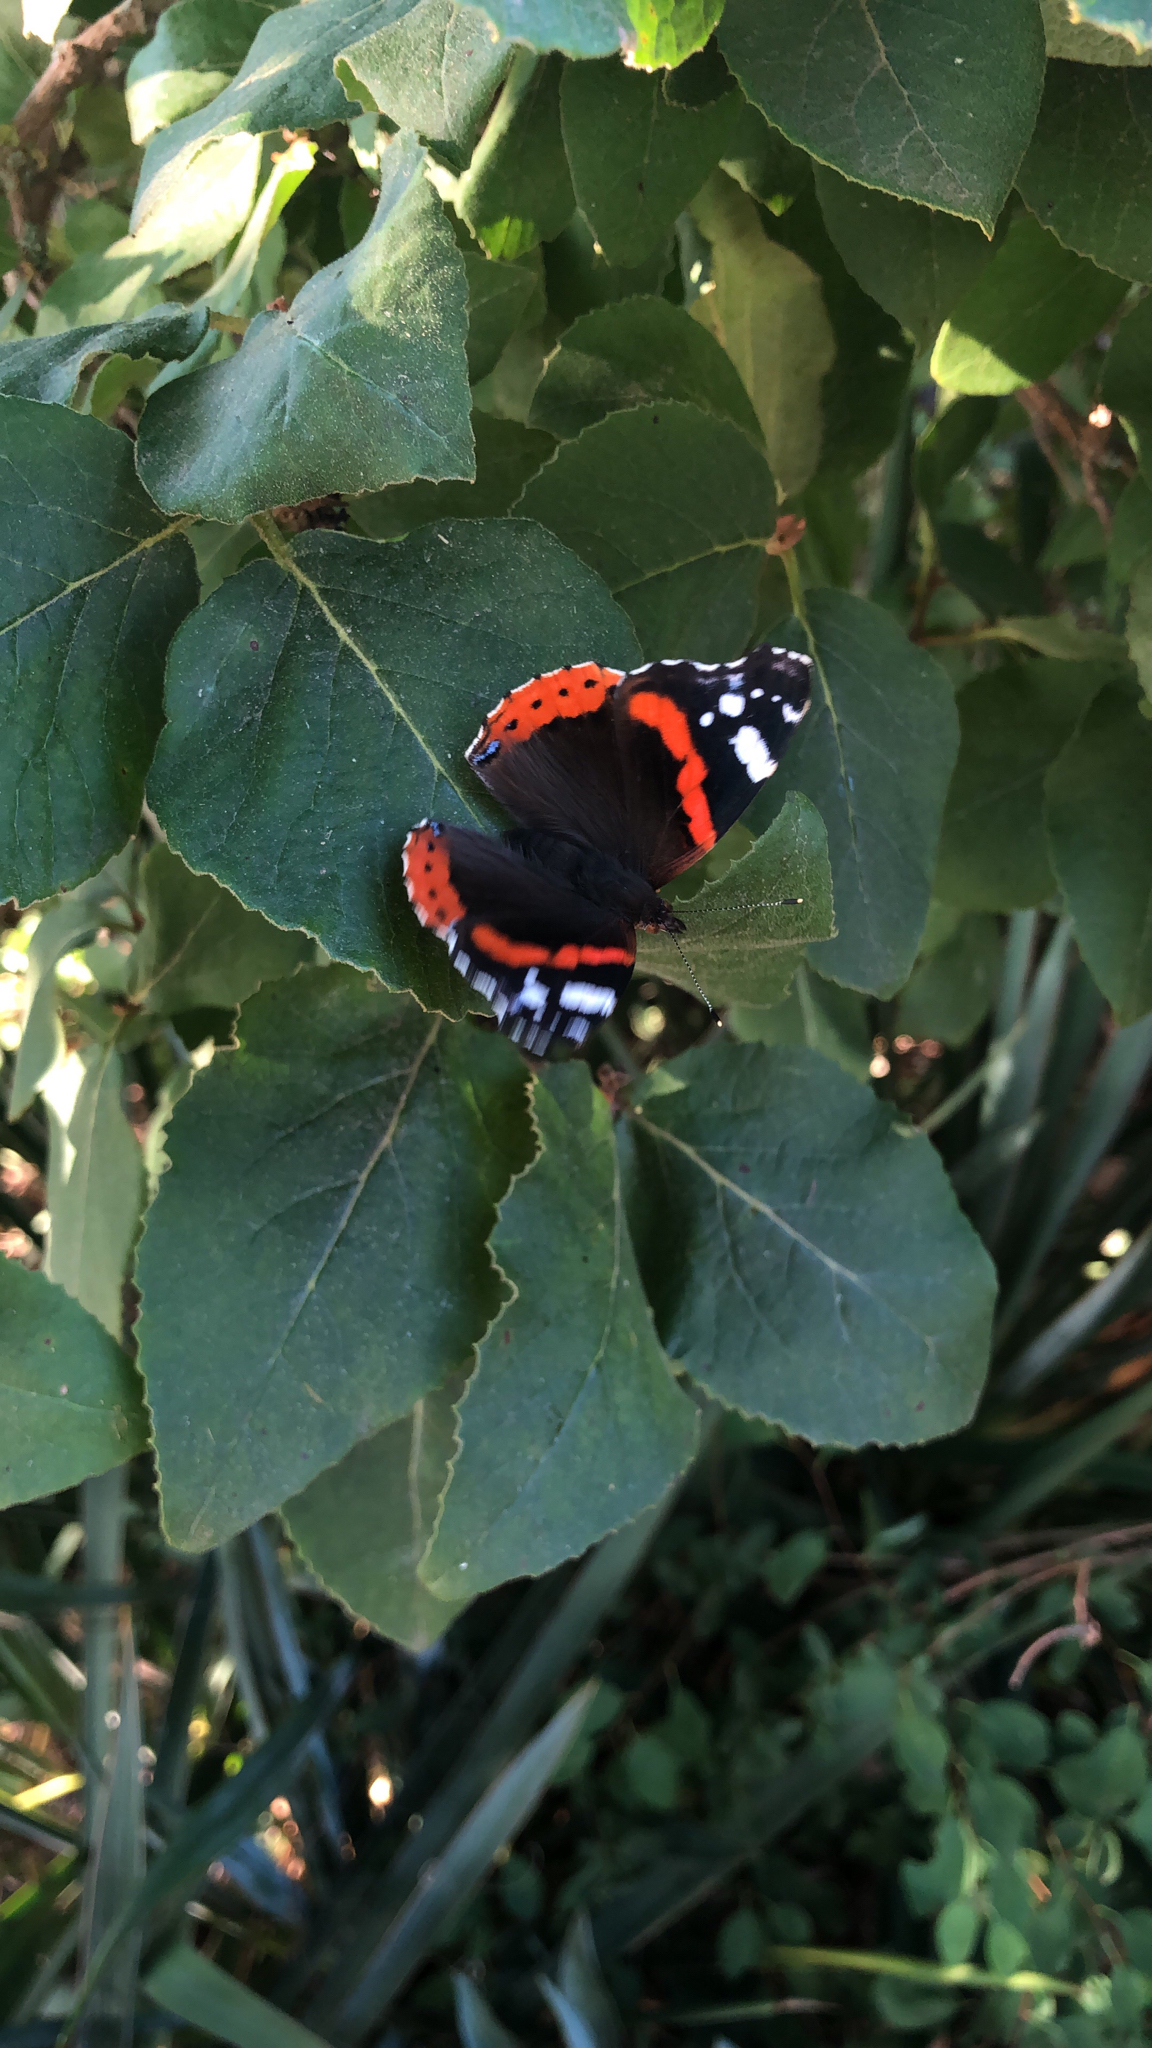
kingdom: Animalia
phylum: Arthropoda
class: Insecta
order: Lepidoptera
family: Nymphalidae
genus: Vanessa
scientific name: Vanessa atalanta
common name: Red admiral
